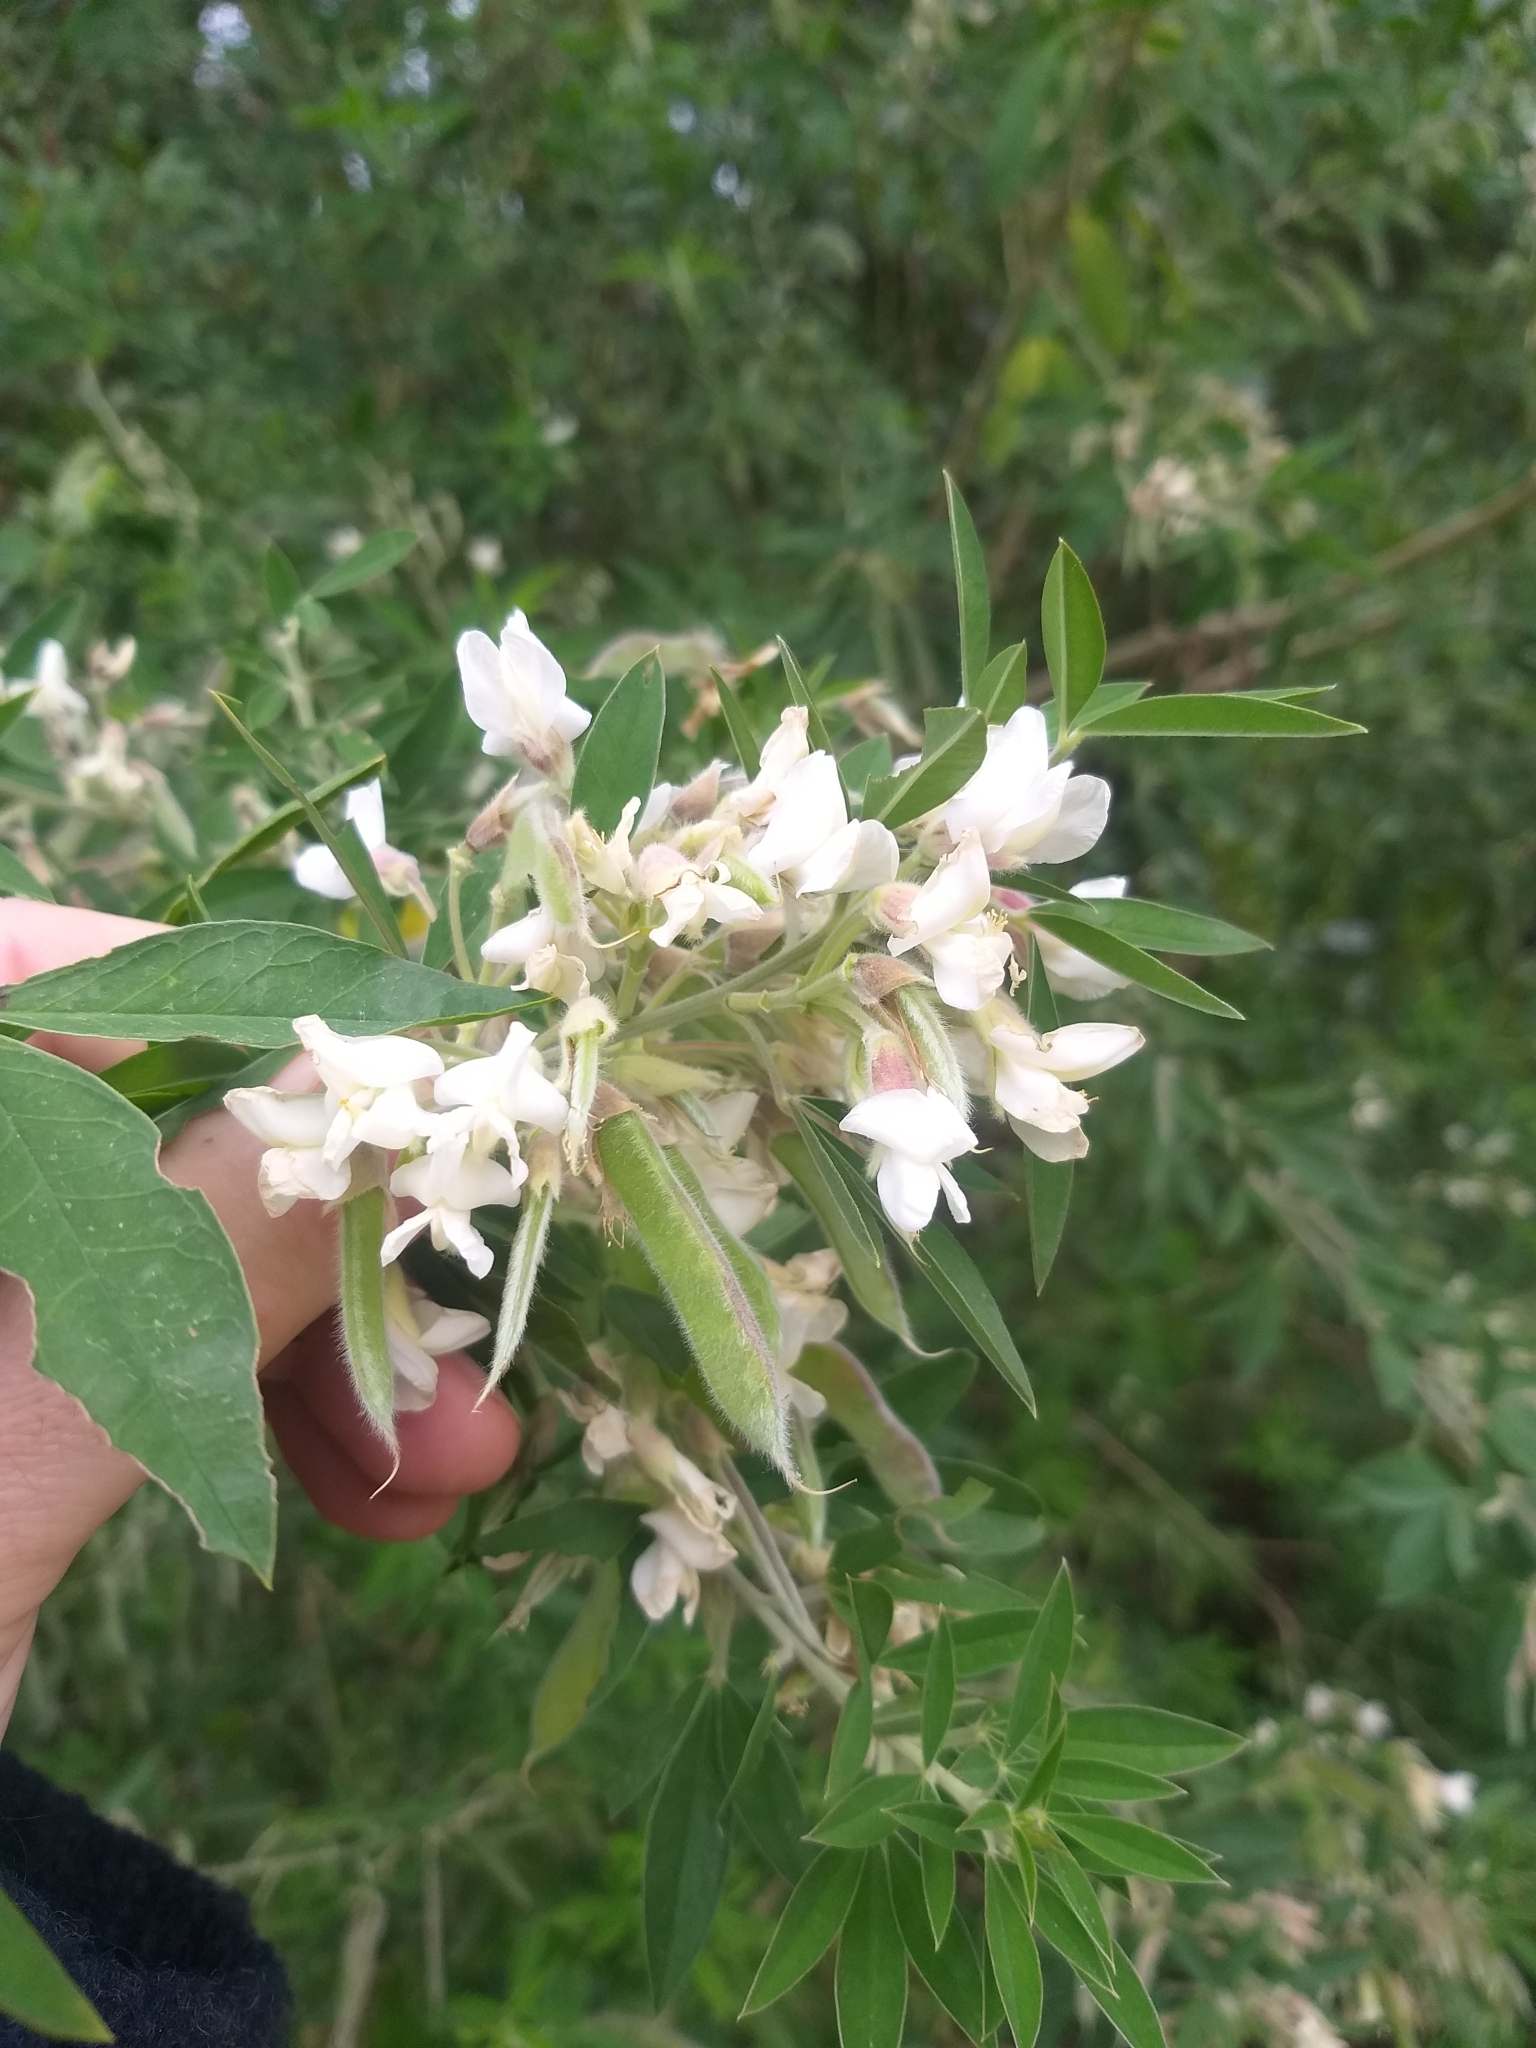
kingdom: Plantae
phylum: Tracheophyta
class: Magnoliopsida
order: Fabales
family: Fabaceae
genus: Chamaecytisus
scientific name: Chamaecytisus prolifer
